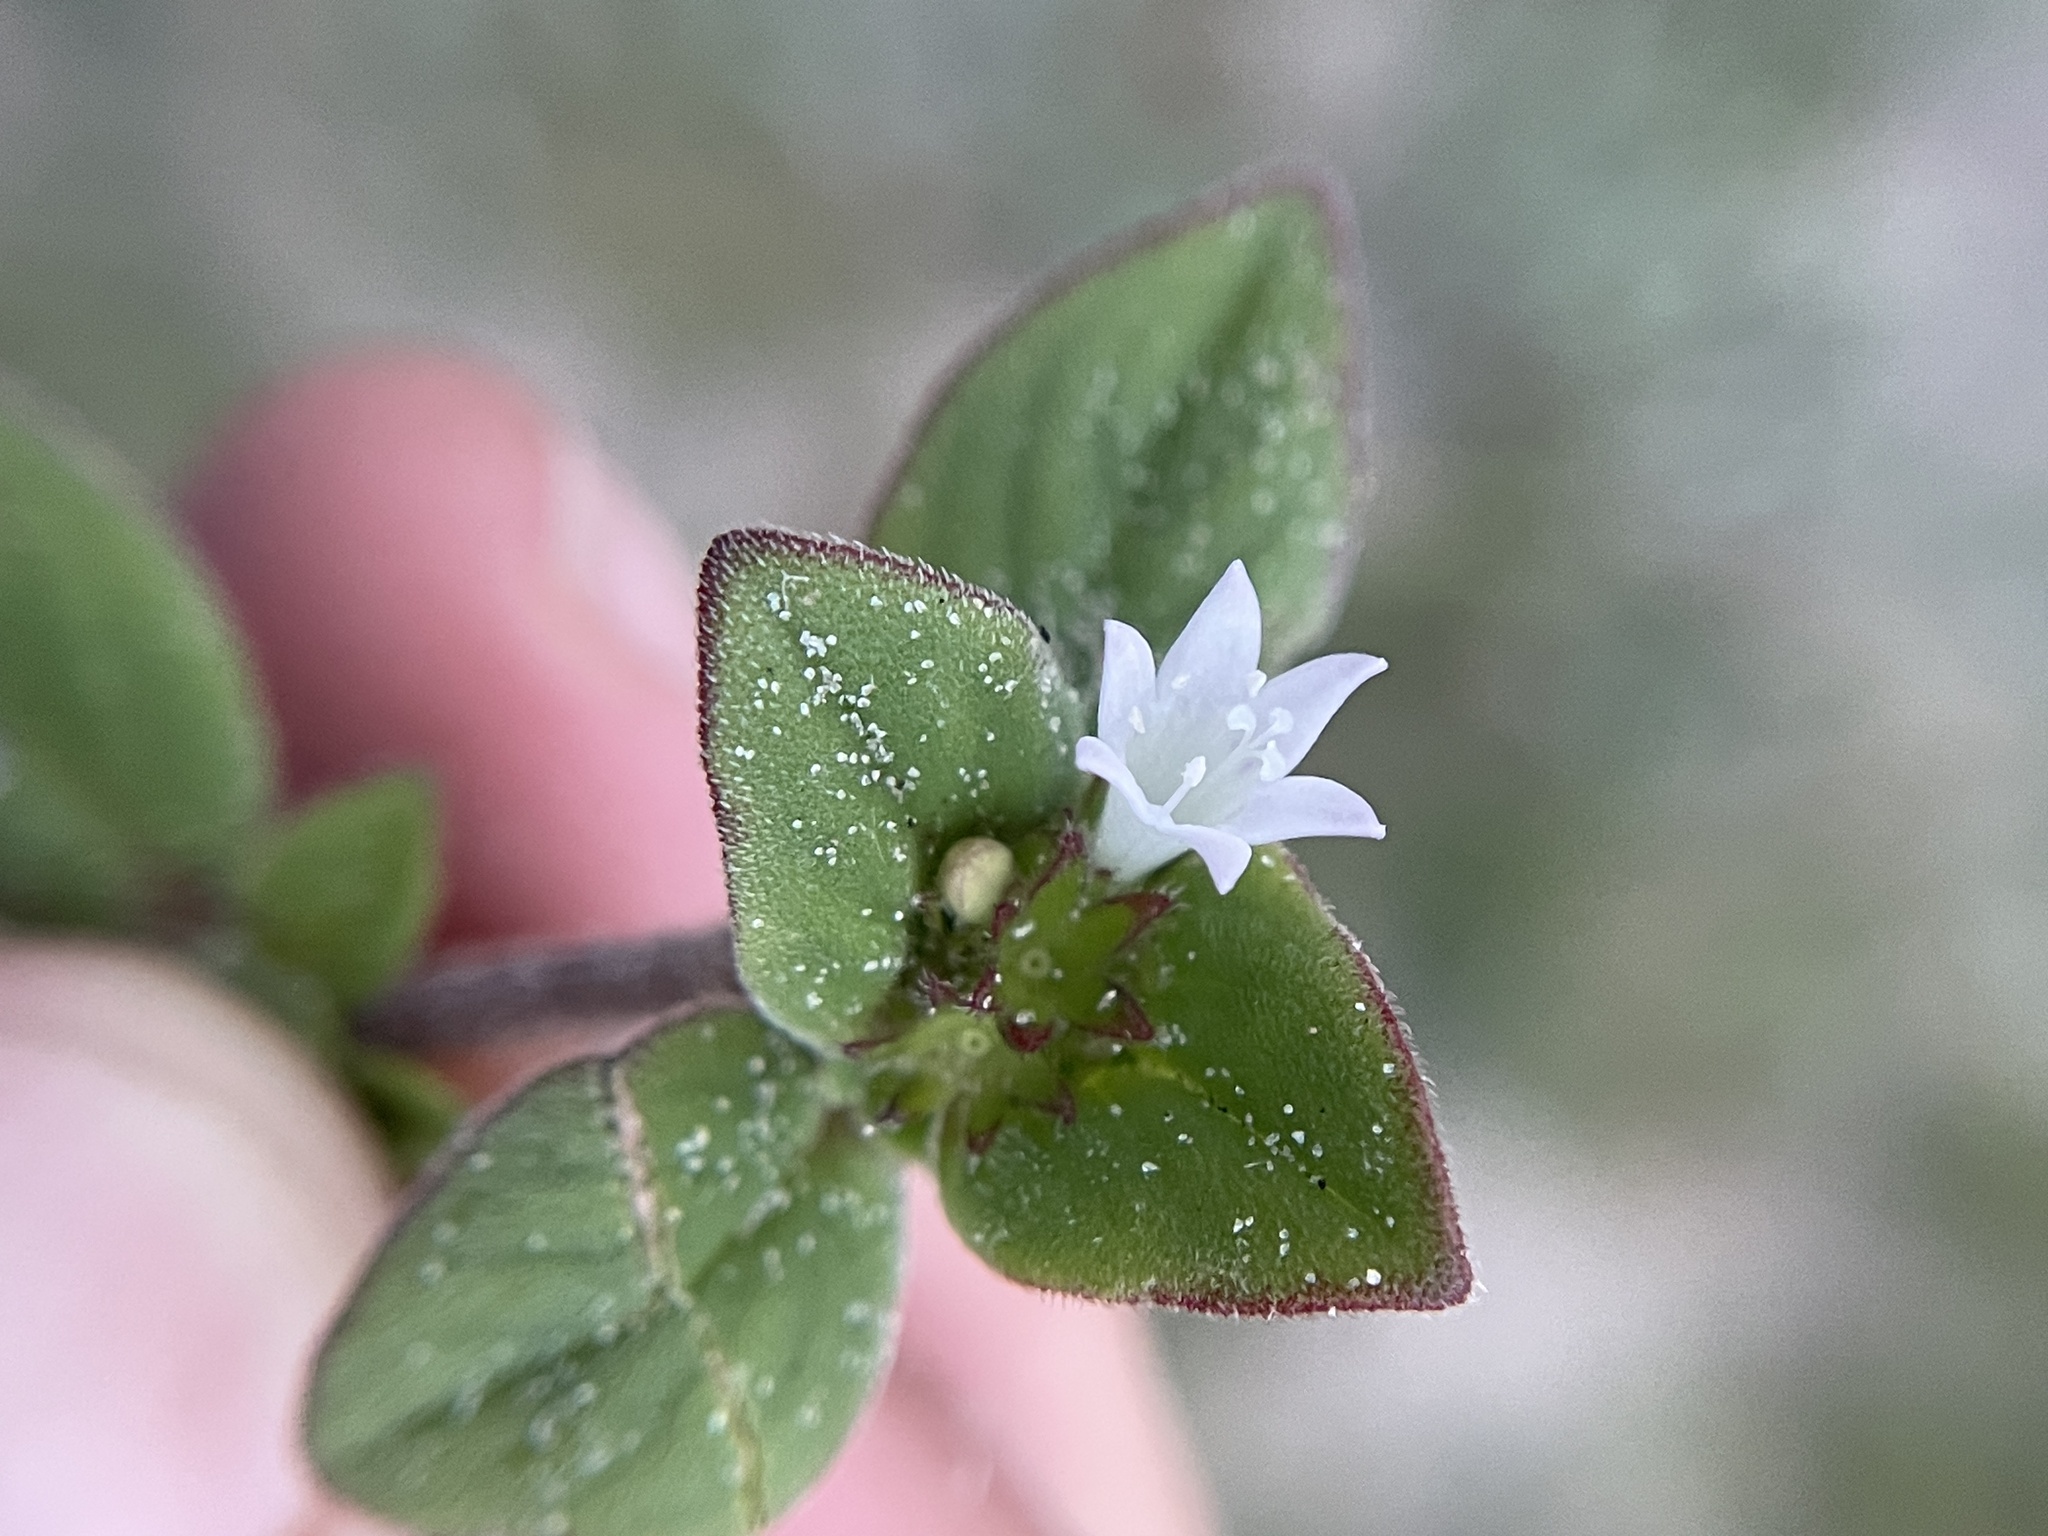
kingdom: Plantae
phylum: Tracheophyta
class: Magnoliopsida
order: Gentianales
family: Rubiaceae
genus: Richardia
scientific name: Richardia brasiliensis
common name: Tropical mexican clover
